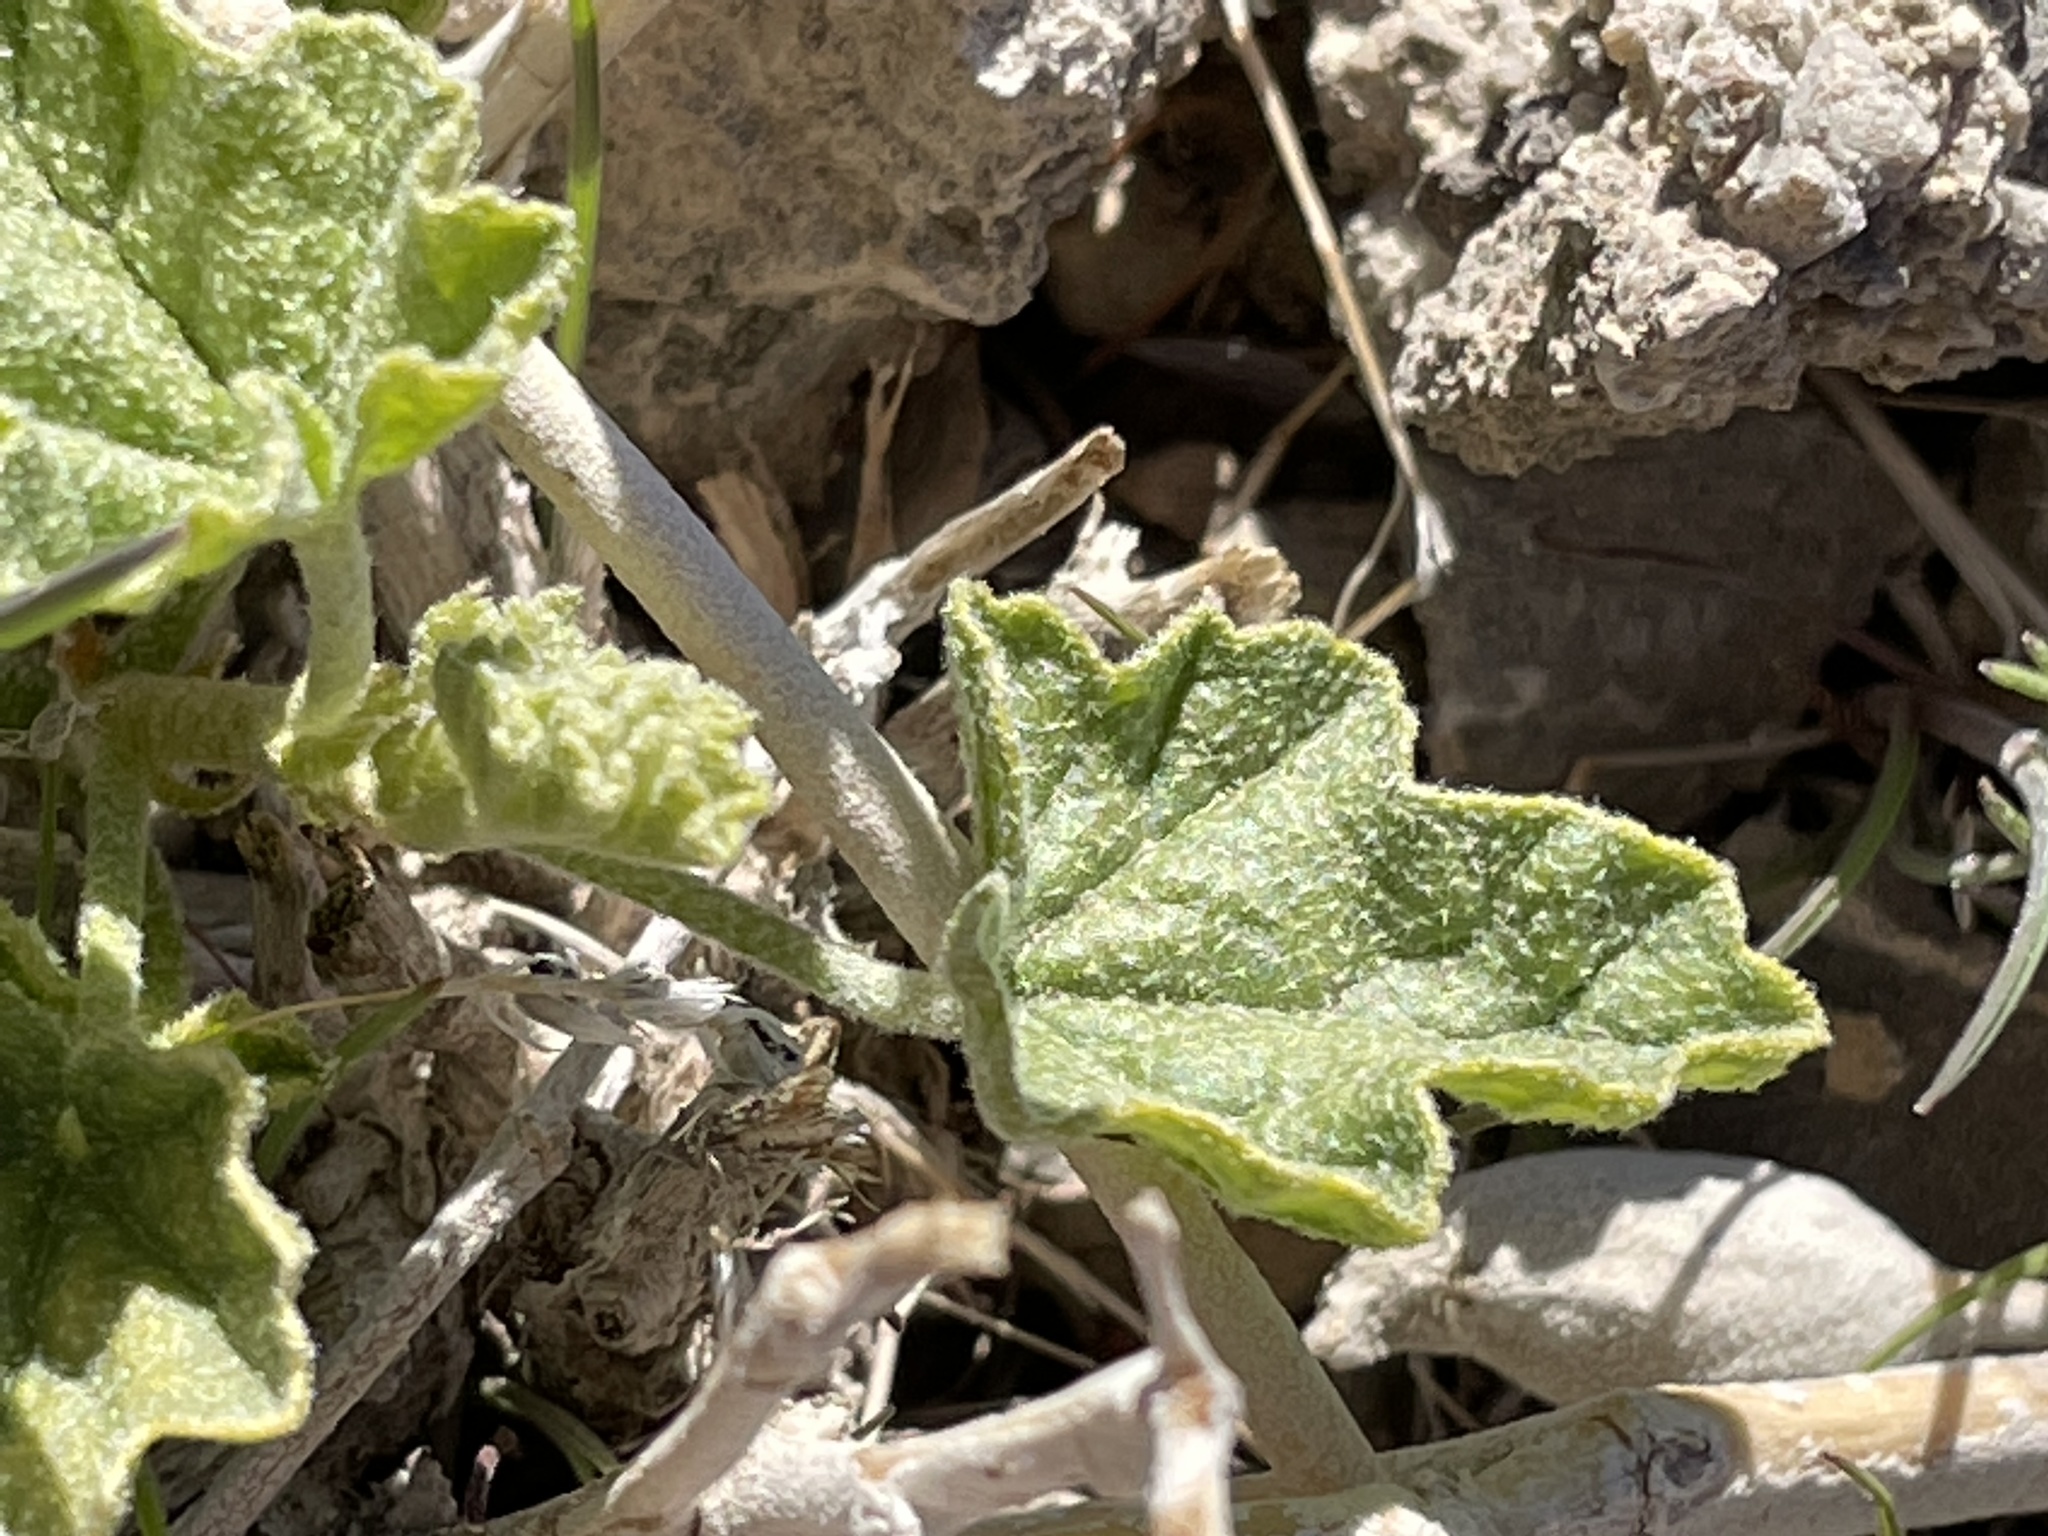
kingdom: Plantae
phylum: Tracheophyta
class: Magnoliopsida
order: Malvales
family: Malvaceae
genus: Sphaeralcea
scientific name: Sphaeralcea ambigua
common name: Apricot globe-mallow
